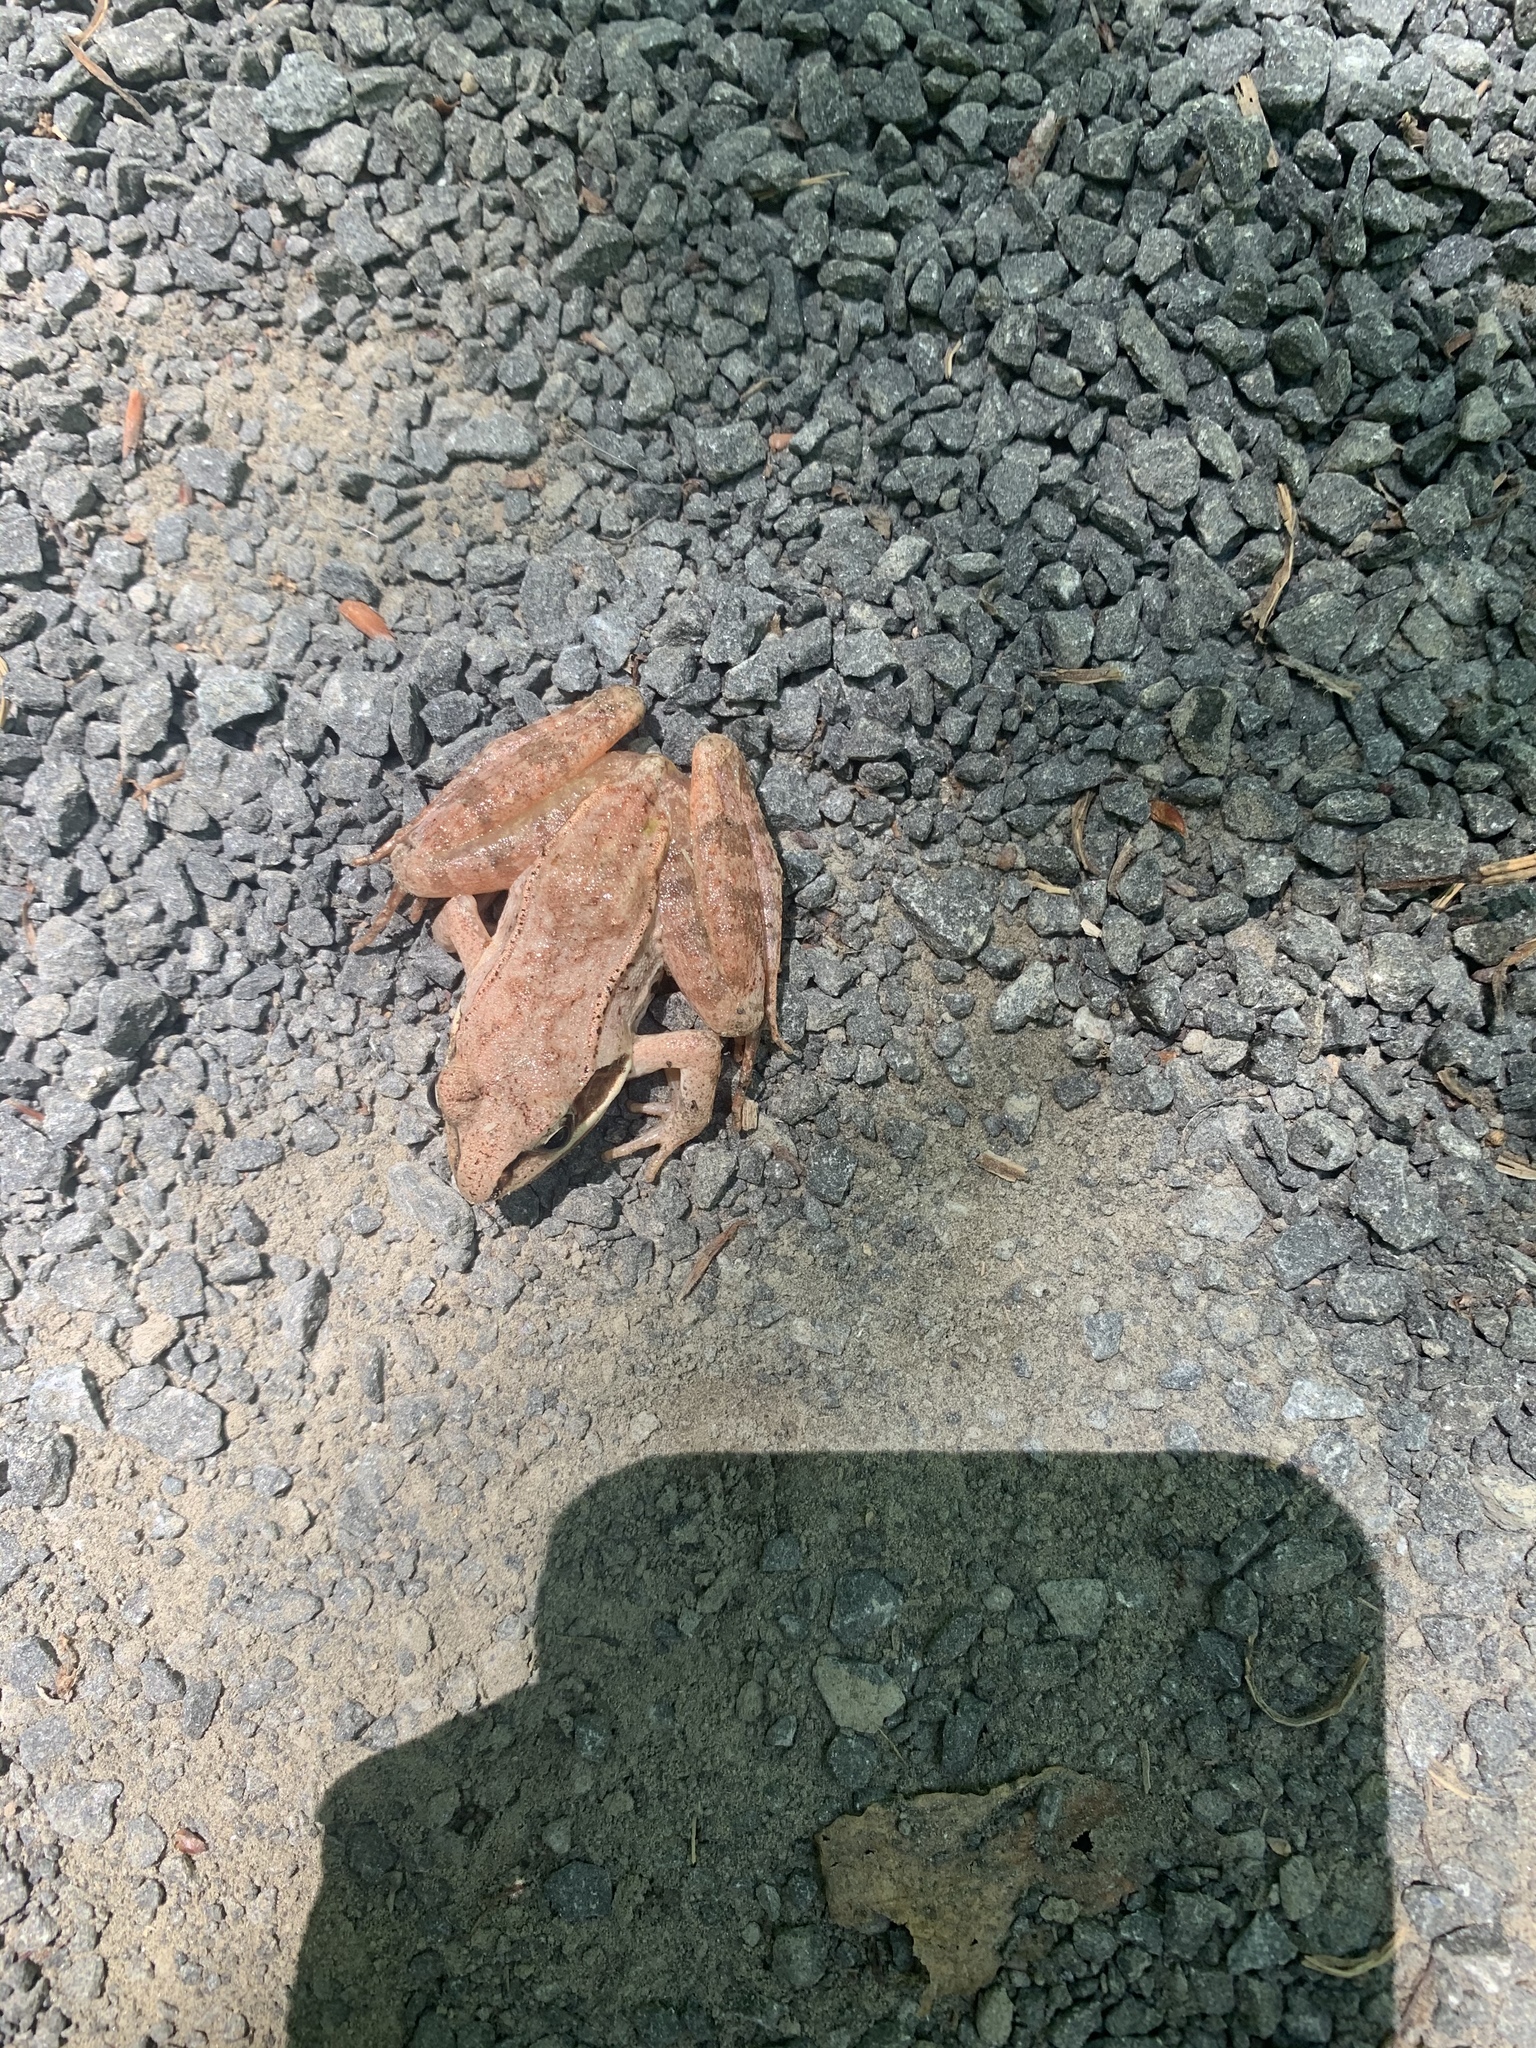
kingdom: Animalia
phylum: Chordata
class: Amphibia
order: Anura
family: Ranidae
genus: Lithobates
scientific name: Lithobates sylvaticus
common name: Wood frog
